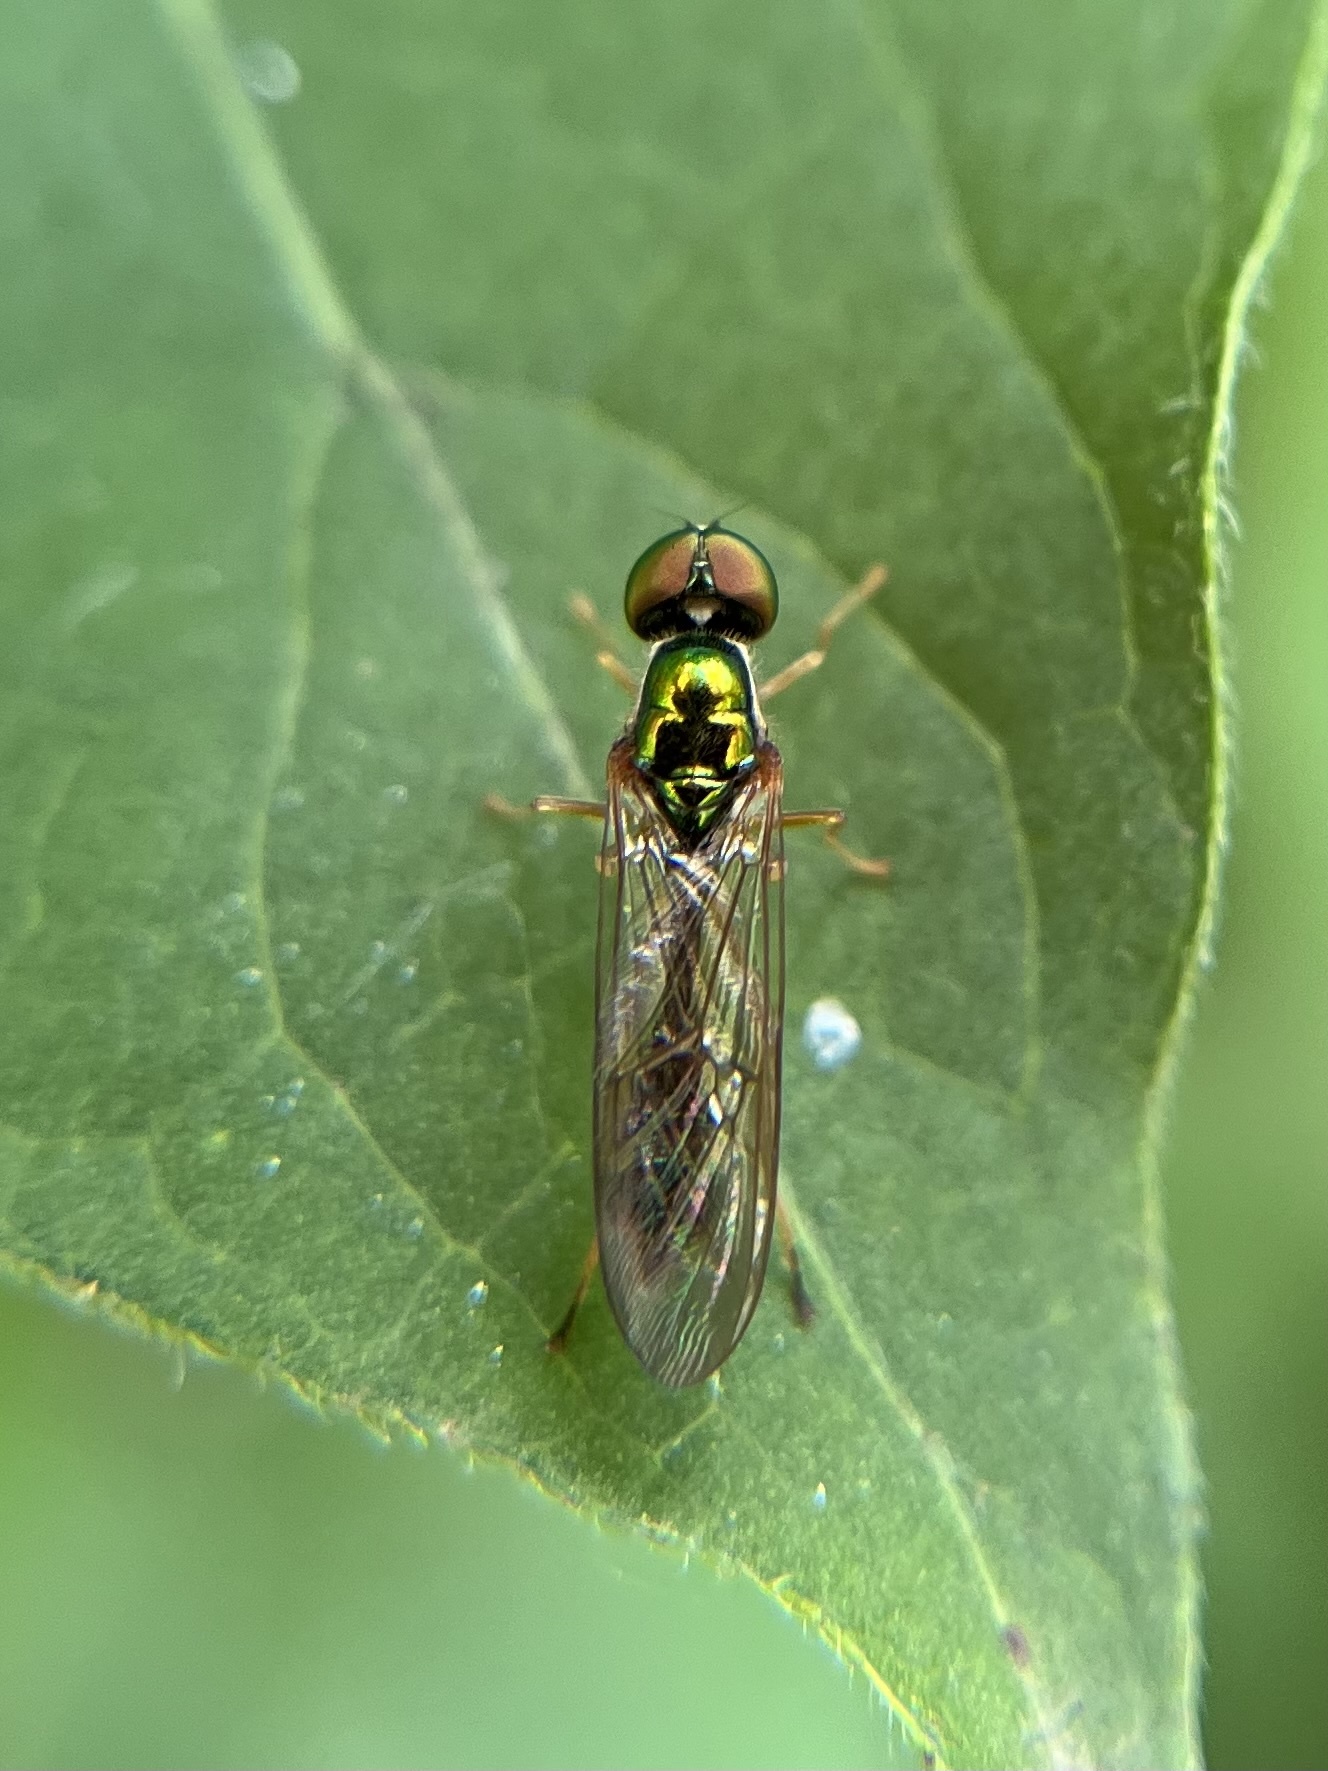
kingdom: Animalia
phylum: Arthropoda
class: Insecta
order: Diptera
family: Stratiomyidae
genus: Sargus
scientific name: Sargus fasciatus
